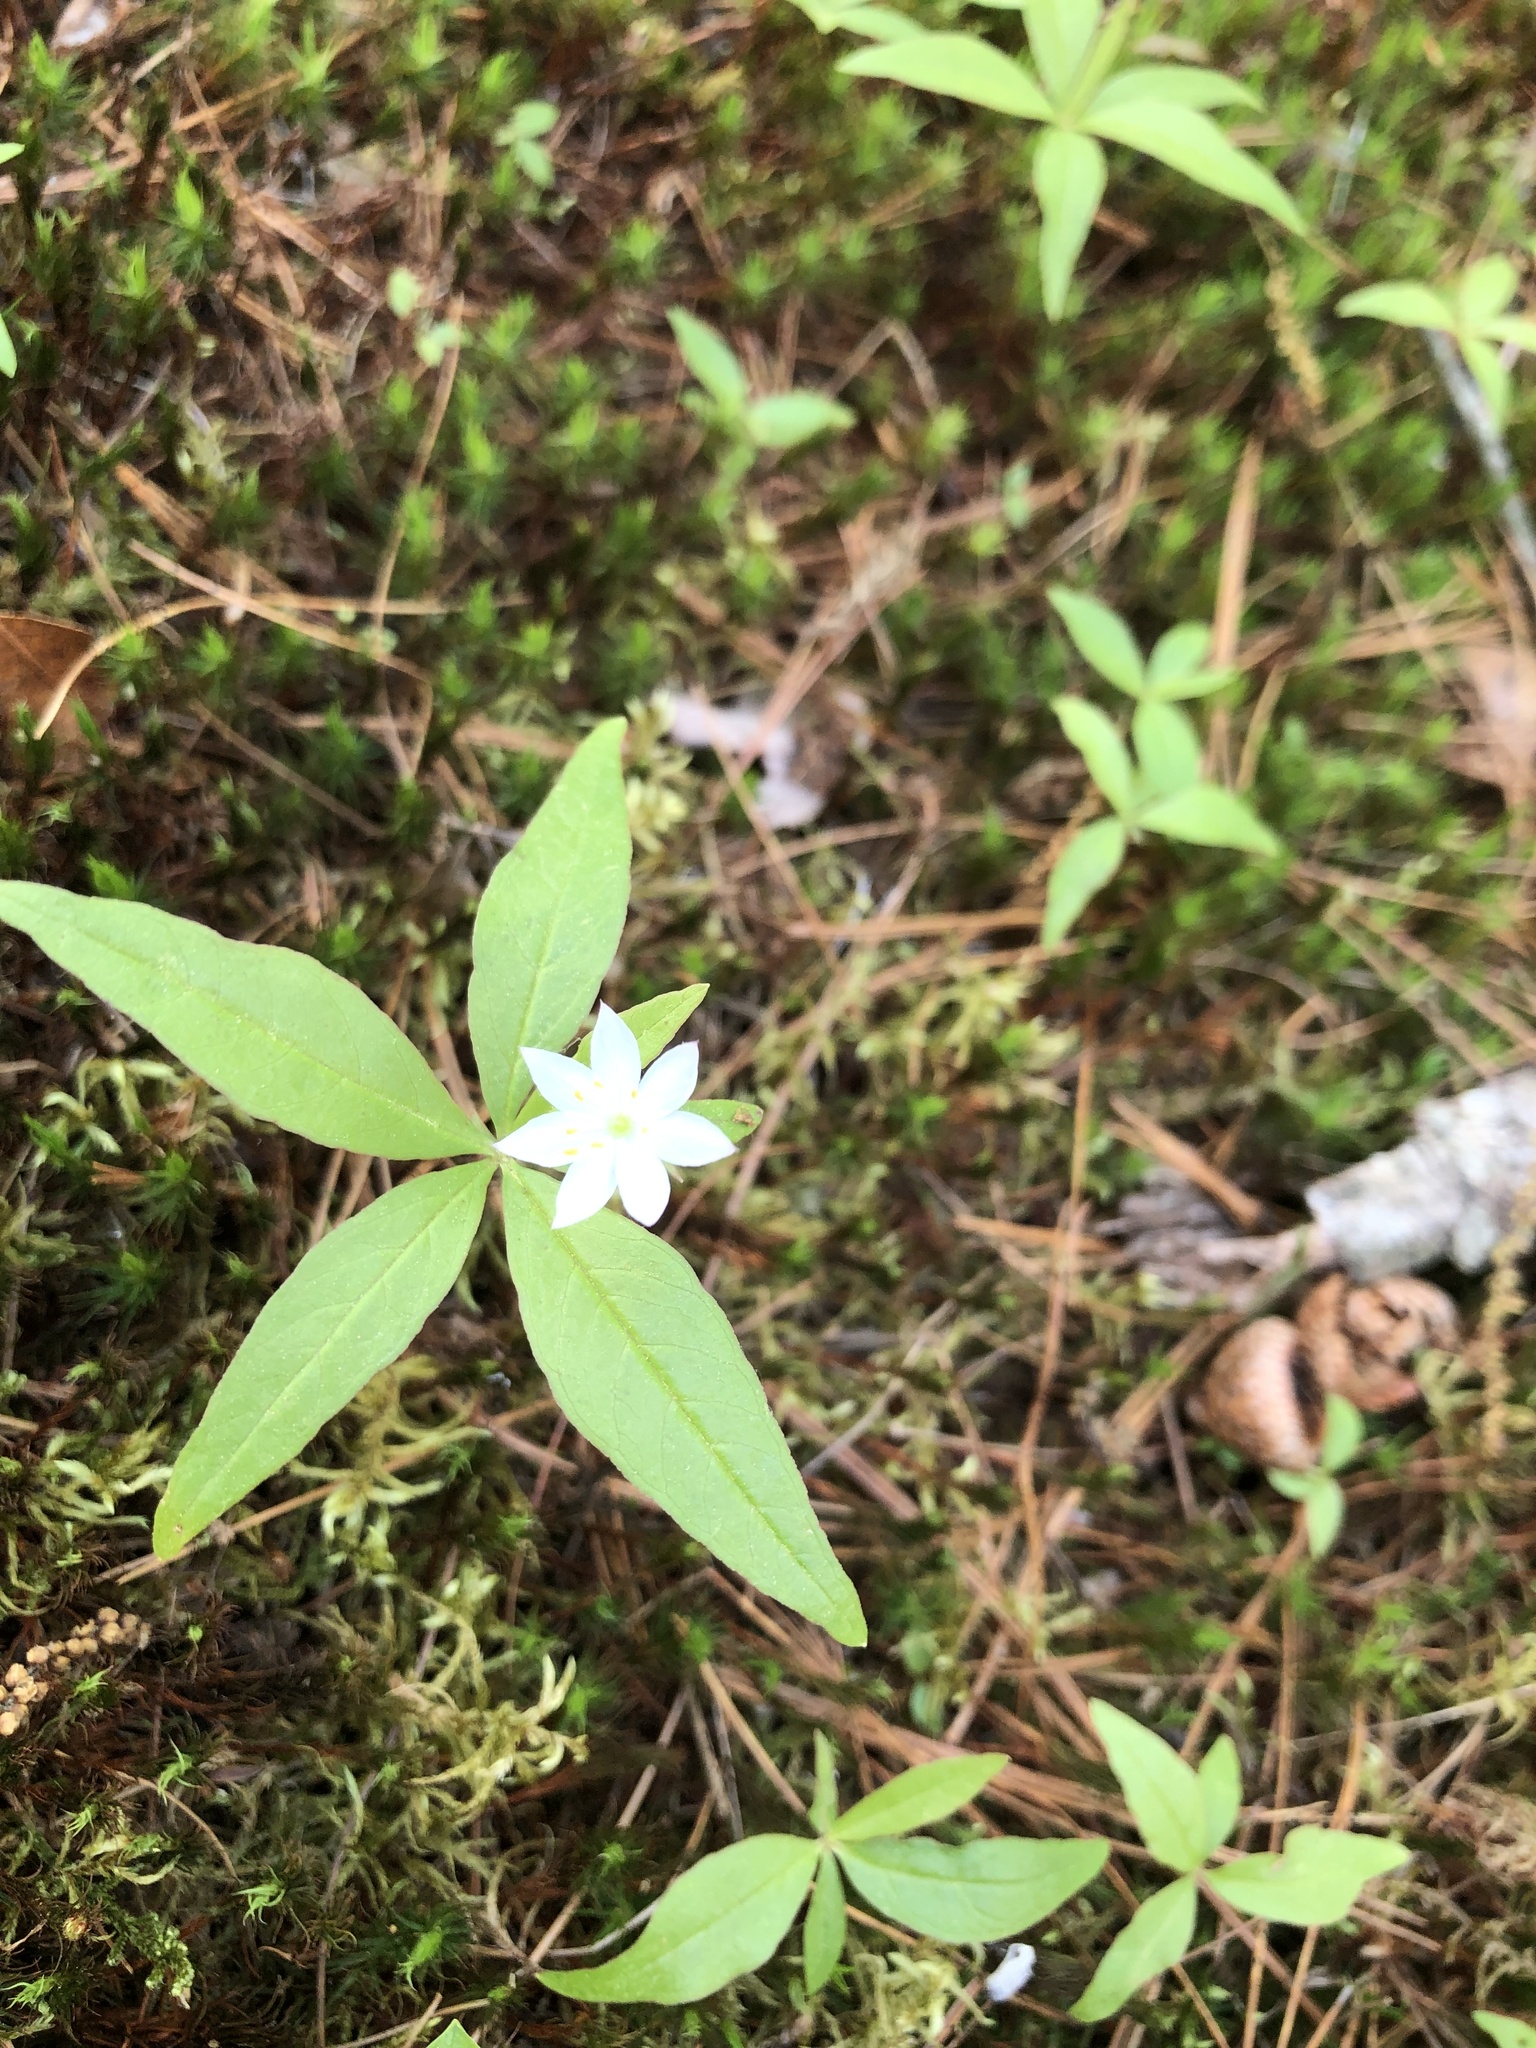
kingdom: Plantae
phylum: Tracheophyta
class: Magnoliopsida
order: Ericales
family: Primulaceae
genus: Lysimachia
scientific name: Lysimachia borealis
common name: American starflower
